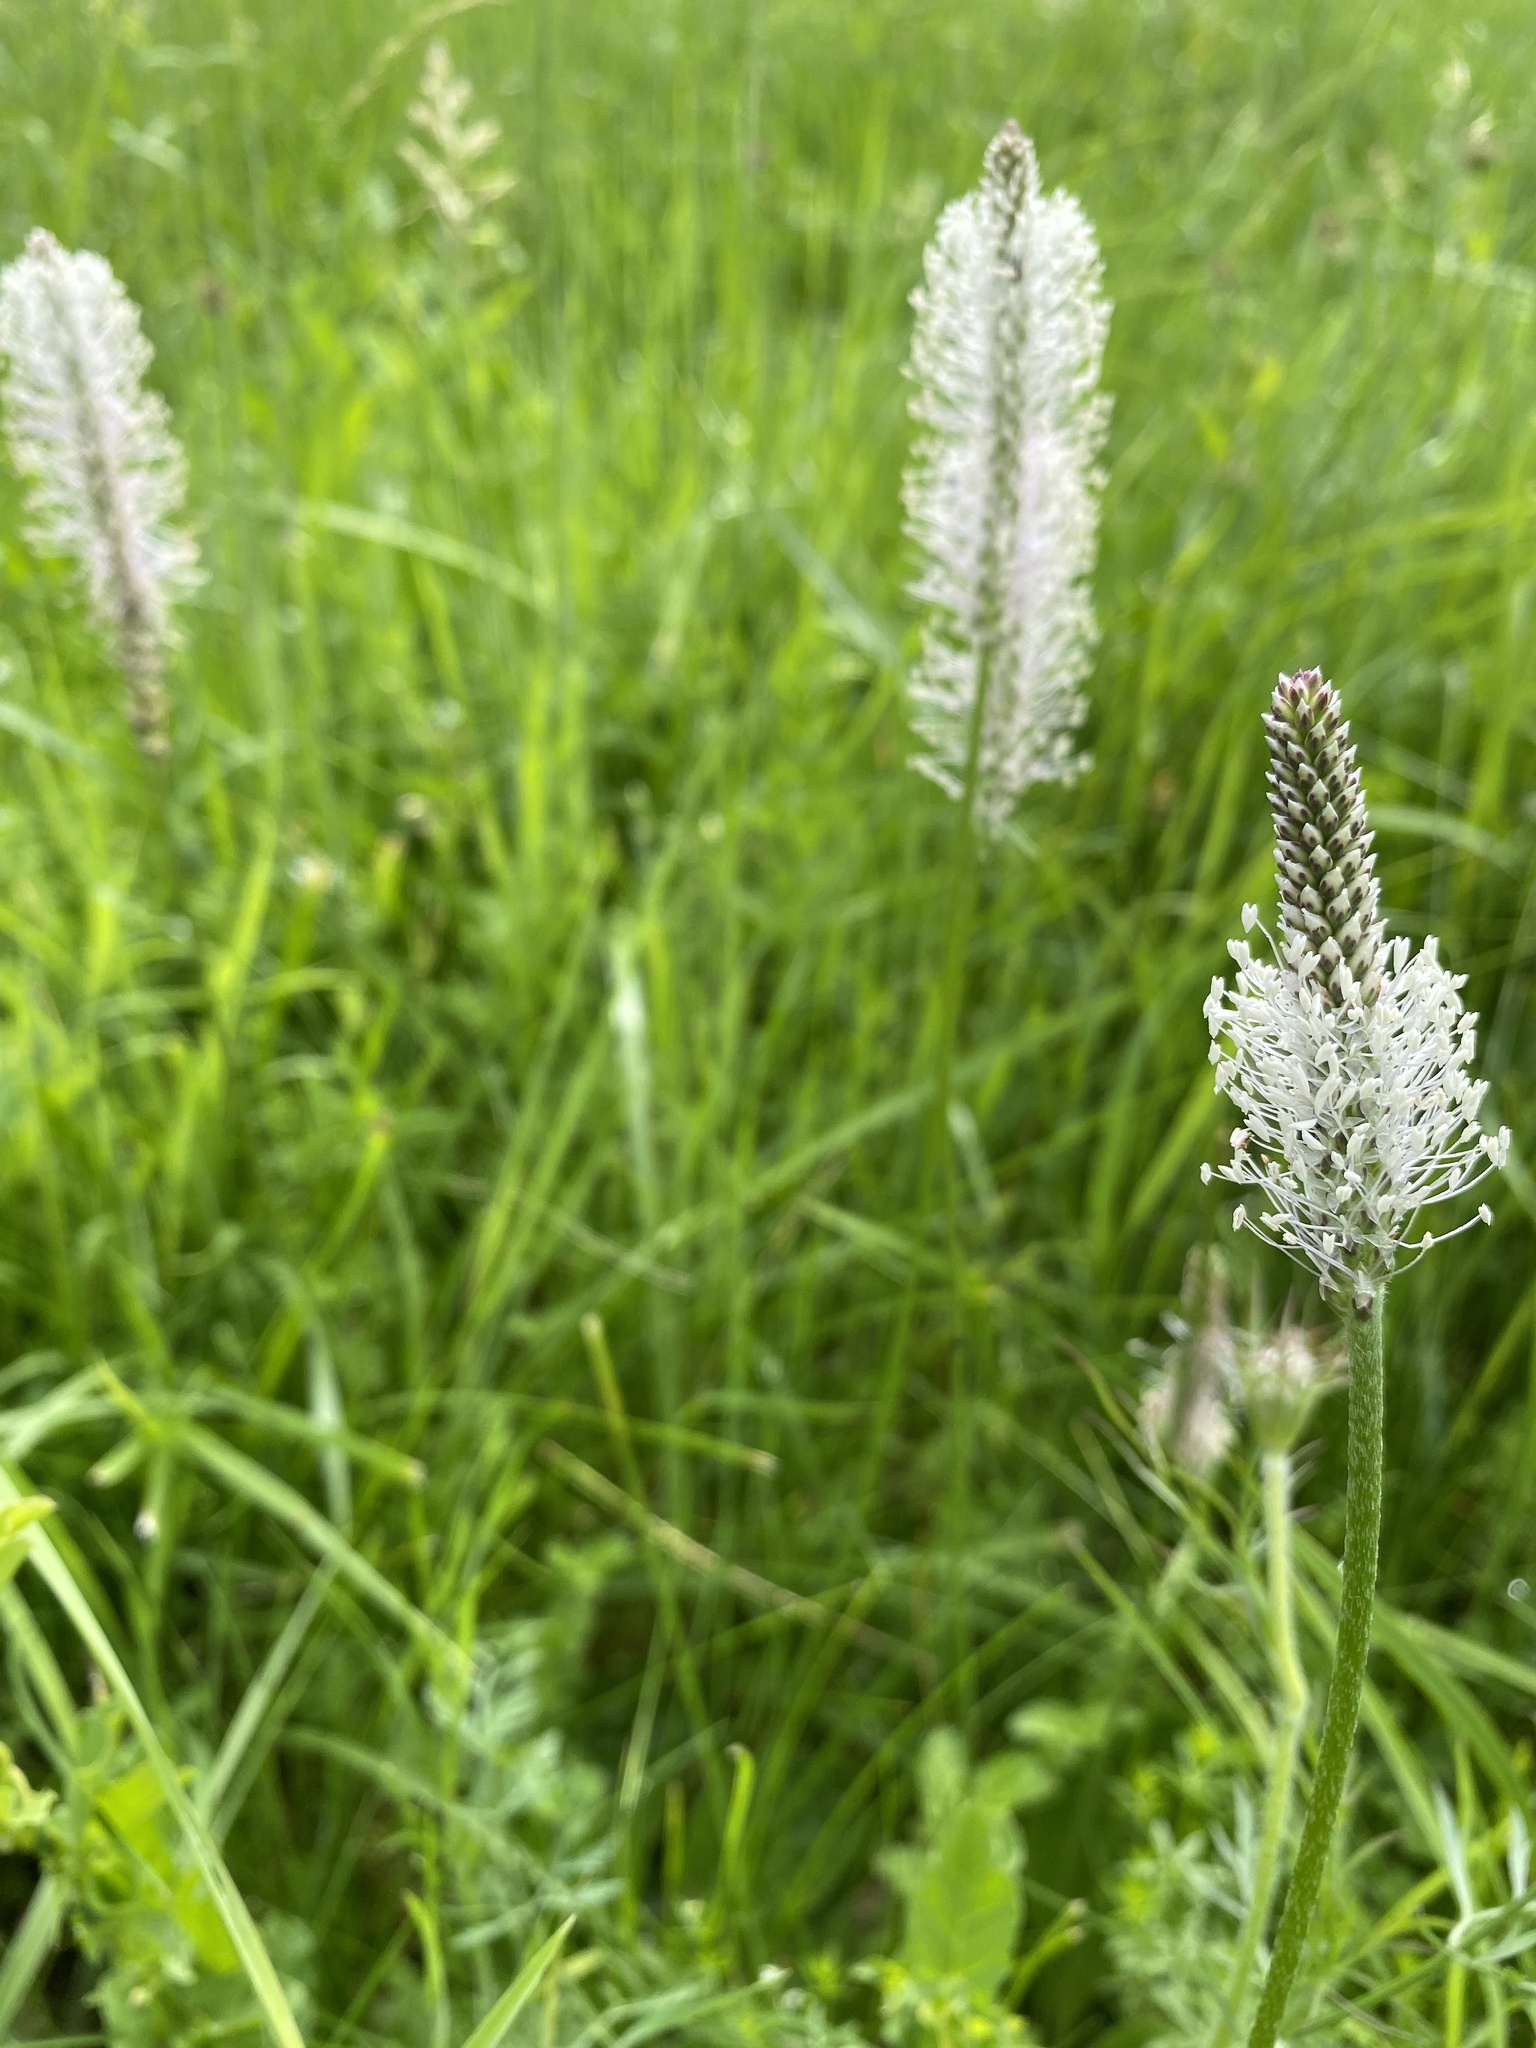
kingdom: Plantae
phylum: Tracheophyta
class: Magnoliopsida
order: Lamiales
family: Plantaginaceae
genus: Plantago
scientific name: Plantago media
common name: Hoary plantain
